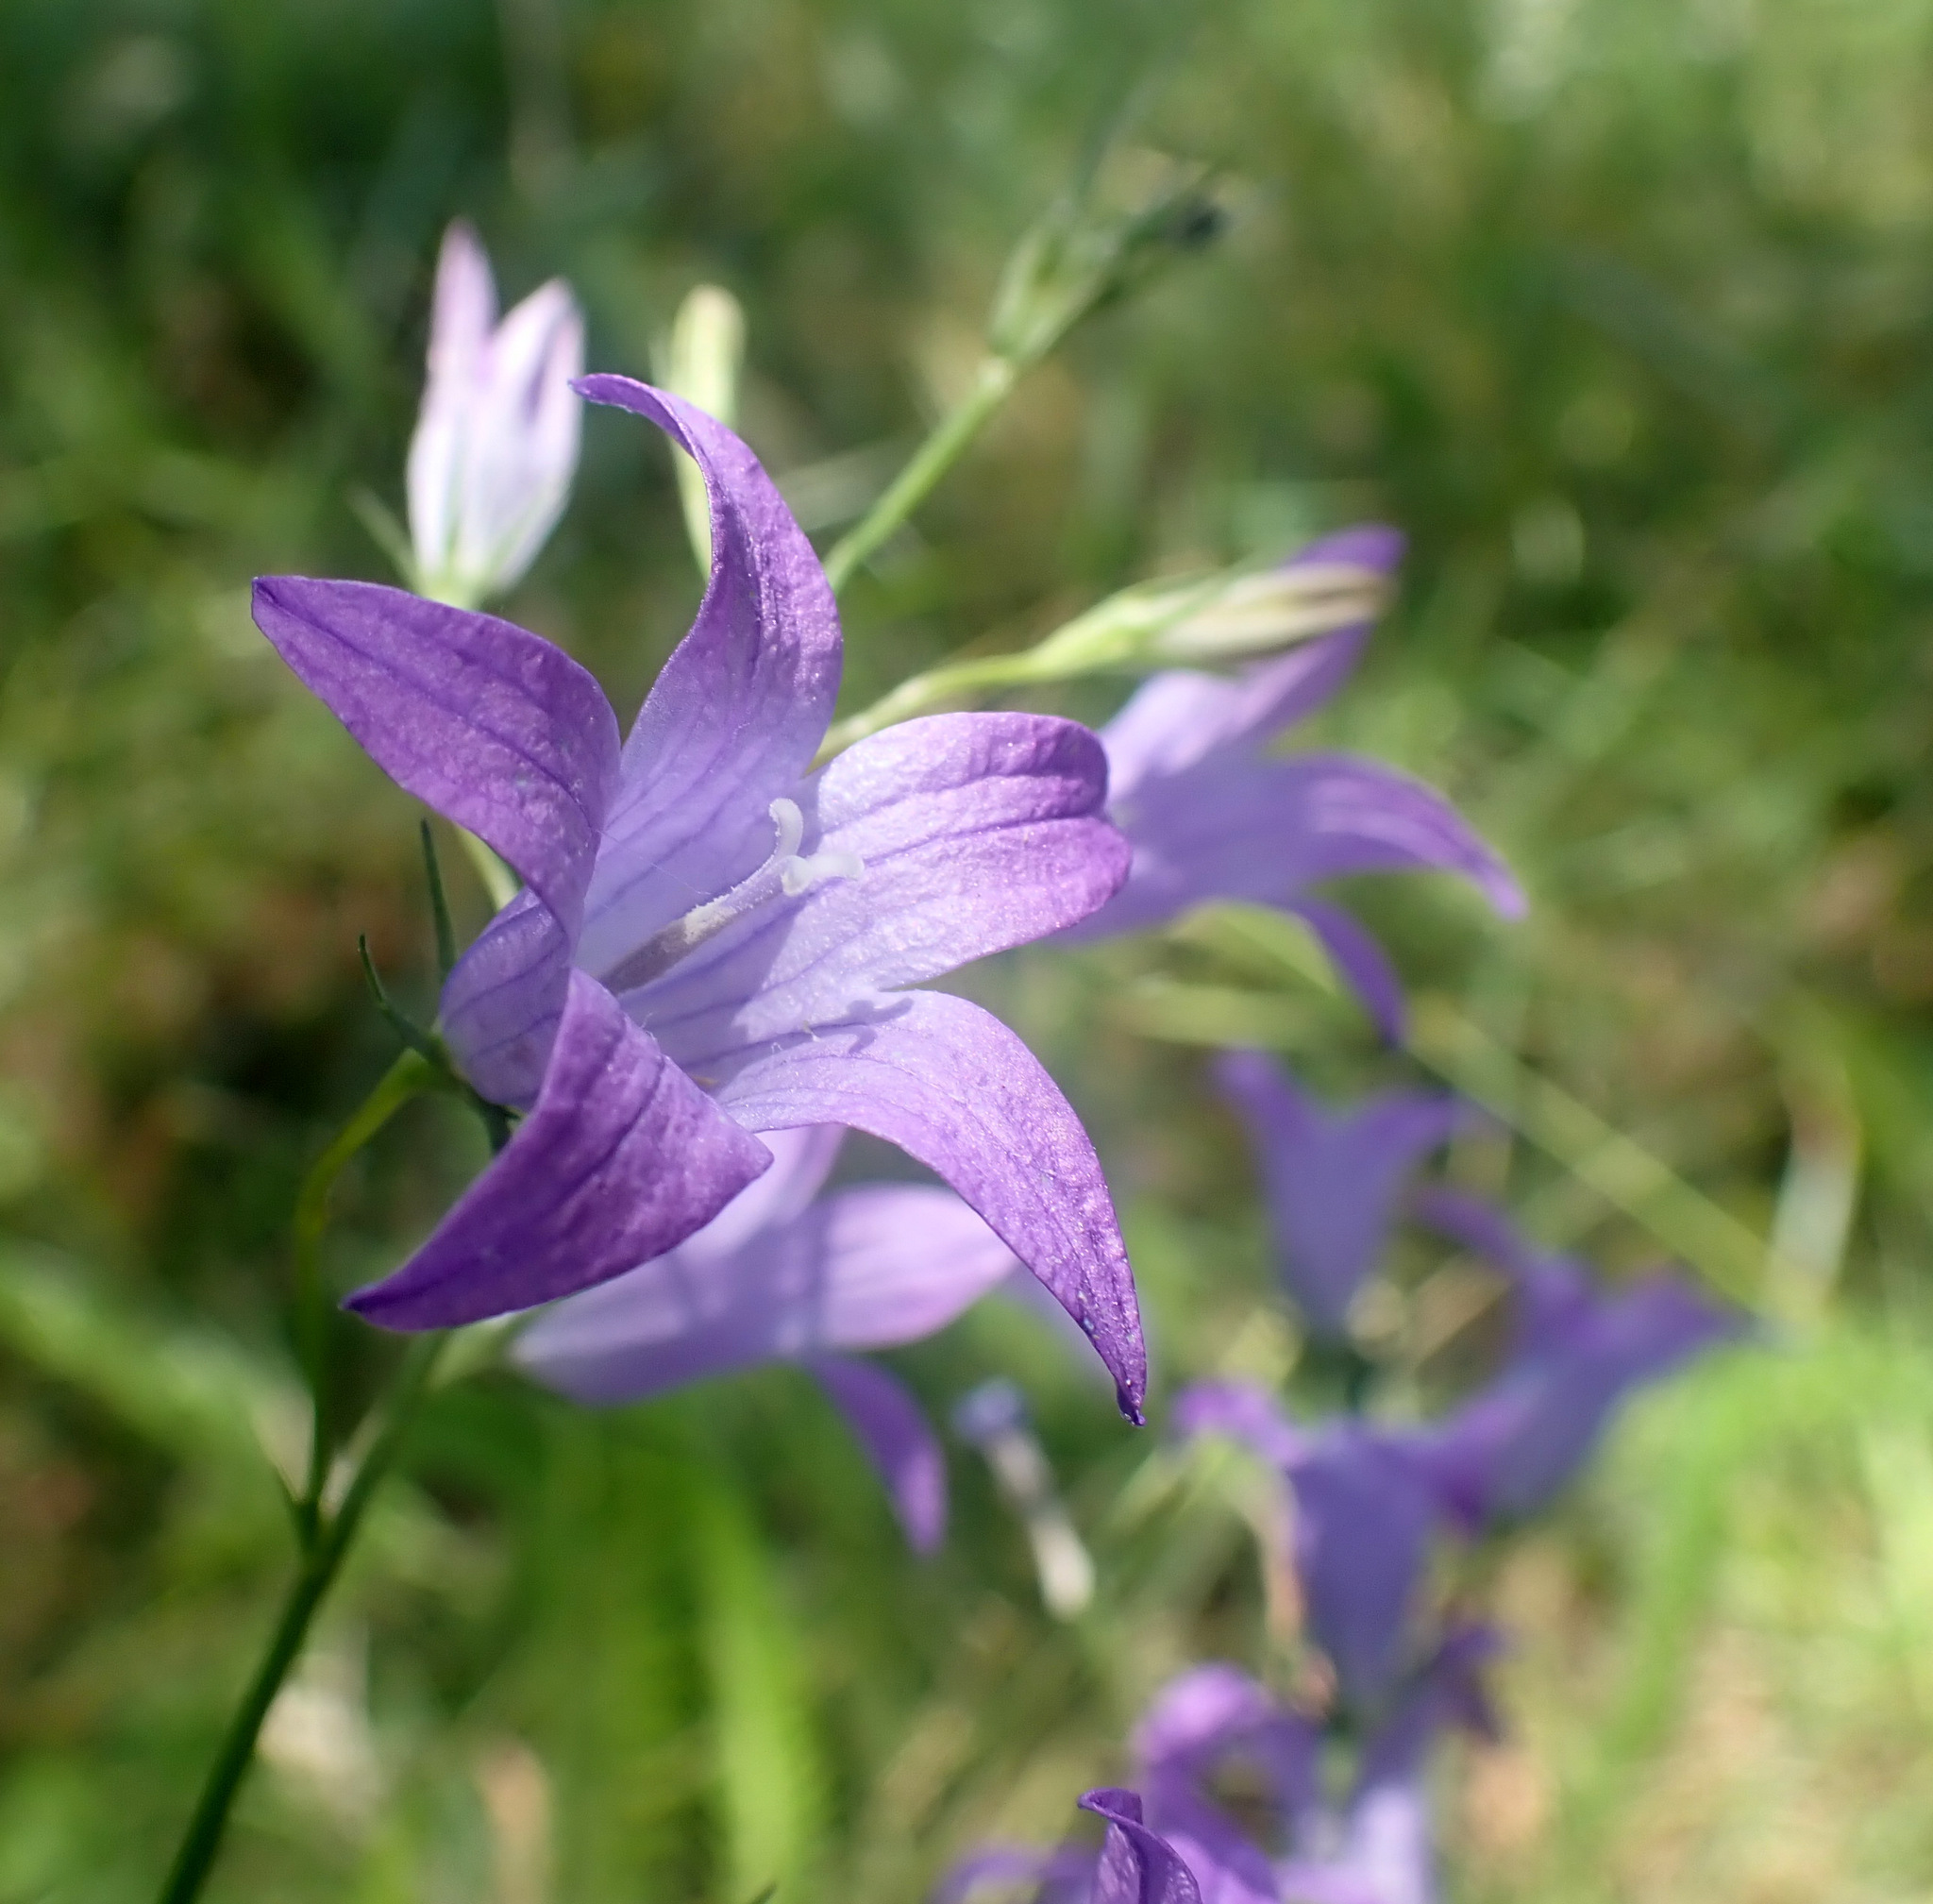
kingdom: Plantae
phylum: Tracheophyta
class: Magnoliopsida
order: Asterales
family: Campanulaceae
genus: Campanula
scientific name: Campanula rapunculus
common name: Rampion bellflower
